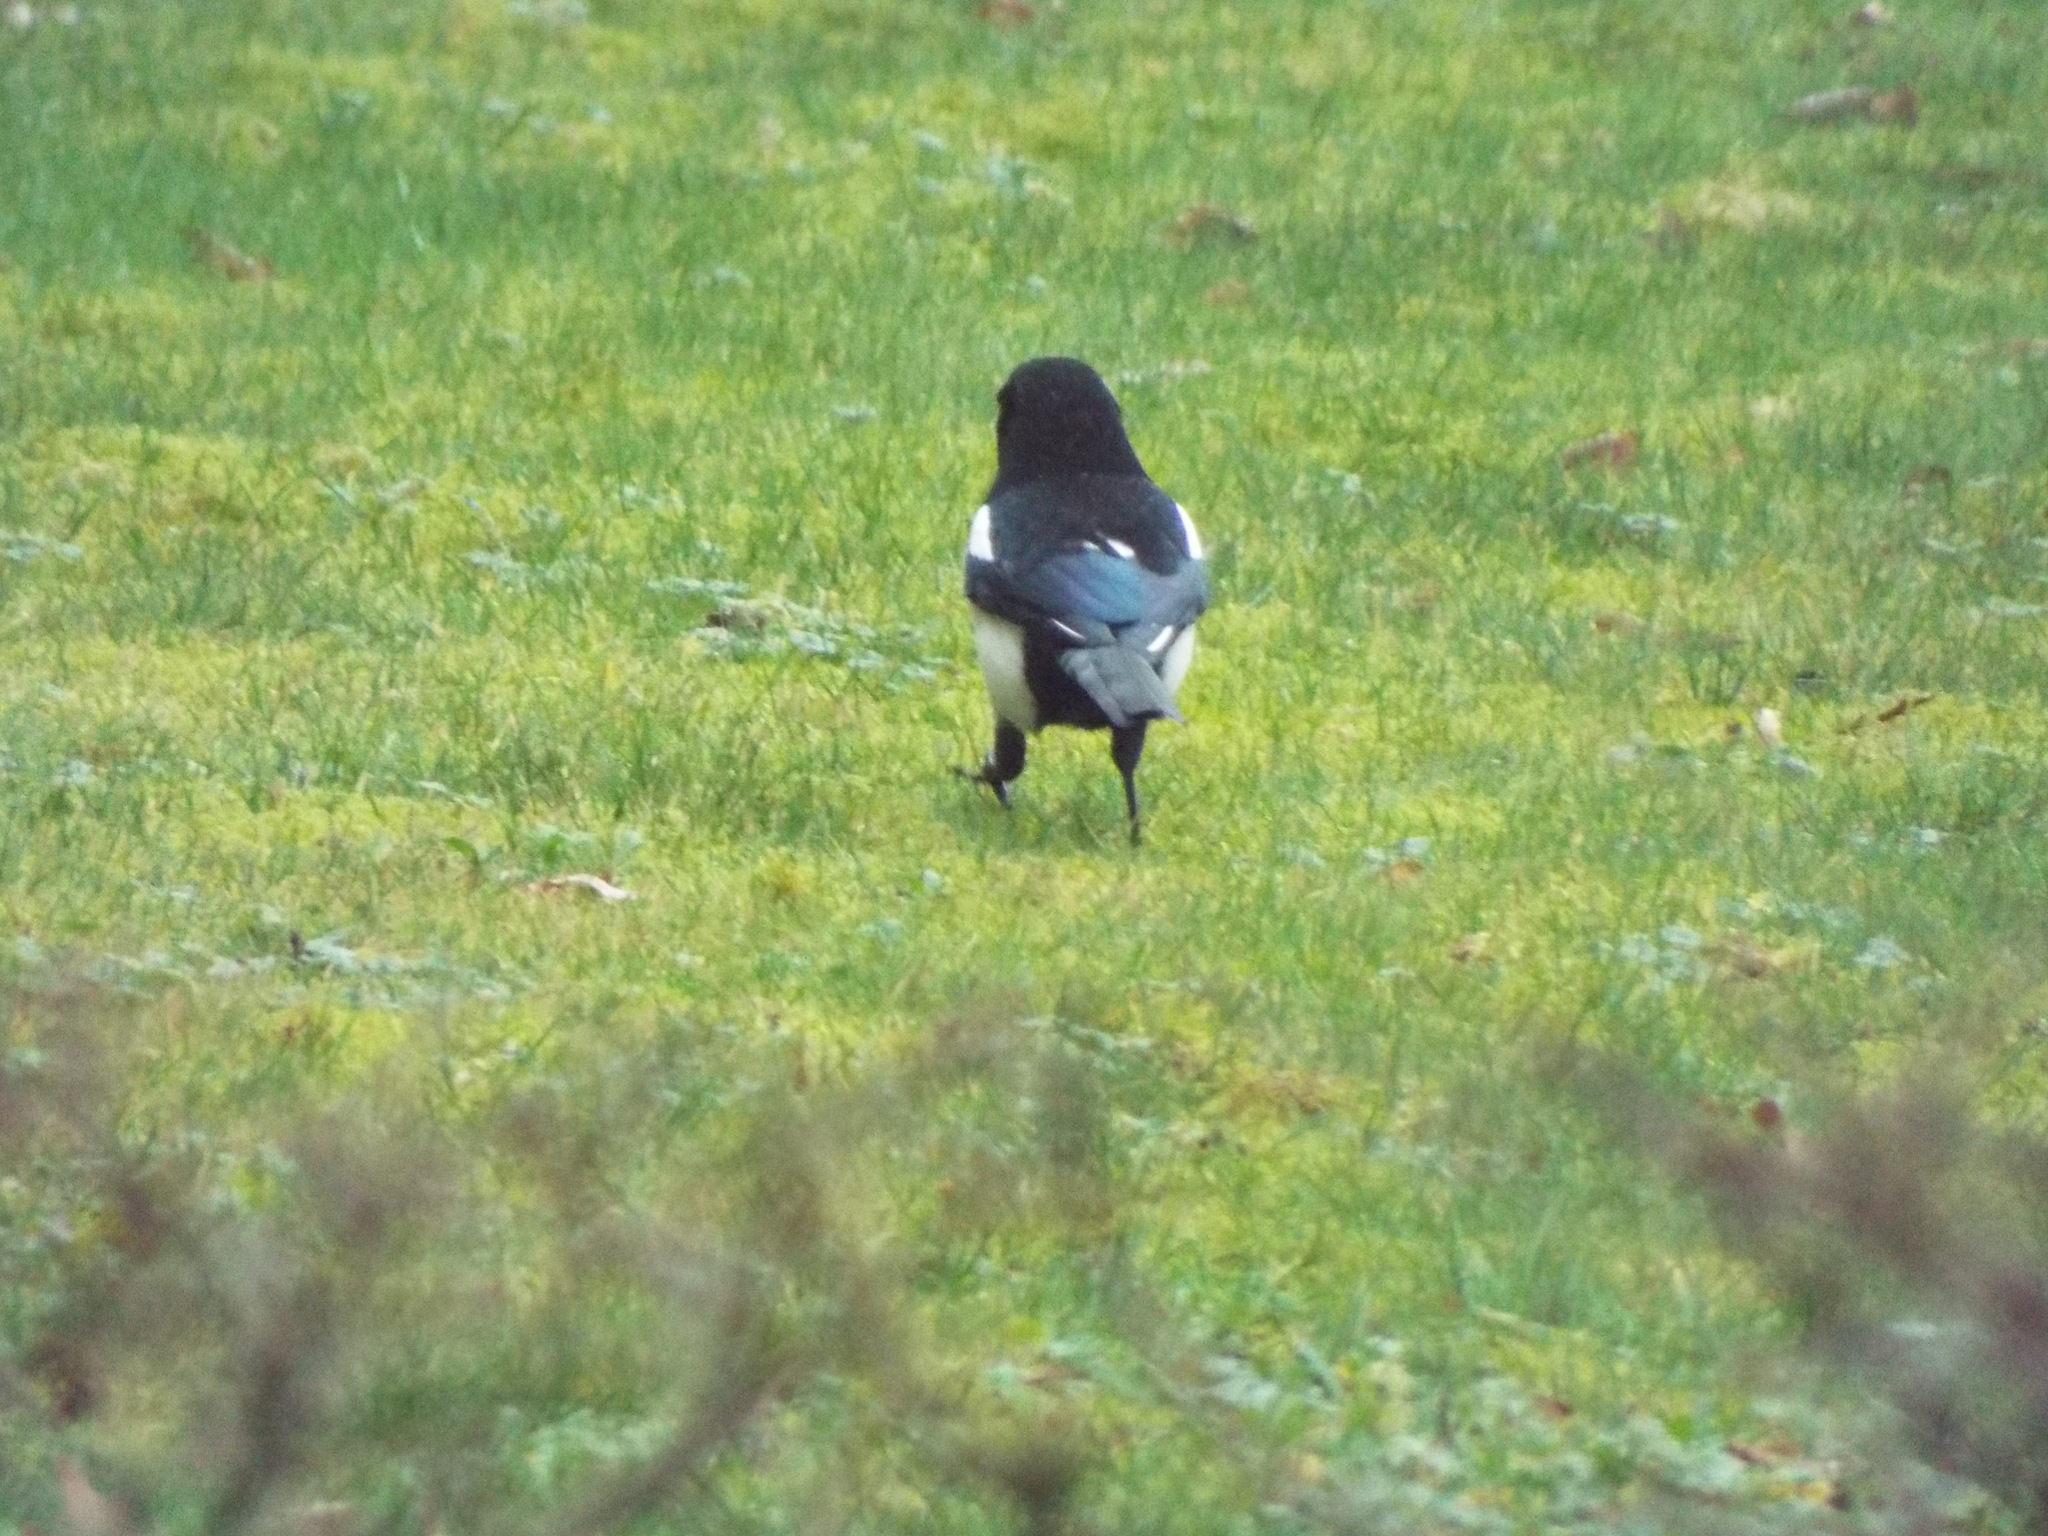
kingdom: Animalia
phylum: Chordata
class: Aves
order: Passeriformes
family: Corvidae
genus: Pica
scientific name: Pica pica
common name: Eurasian magpie
